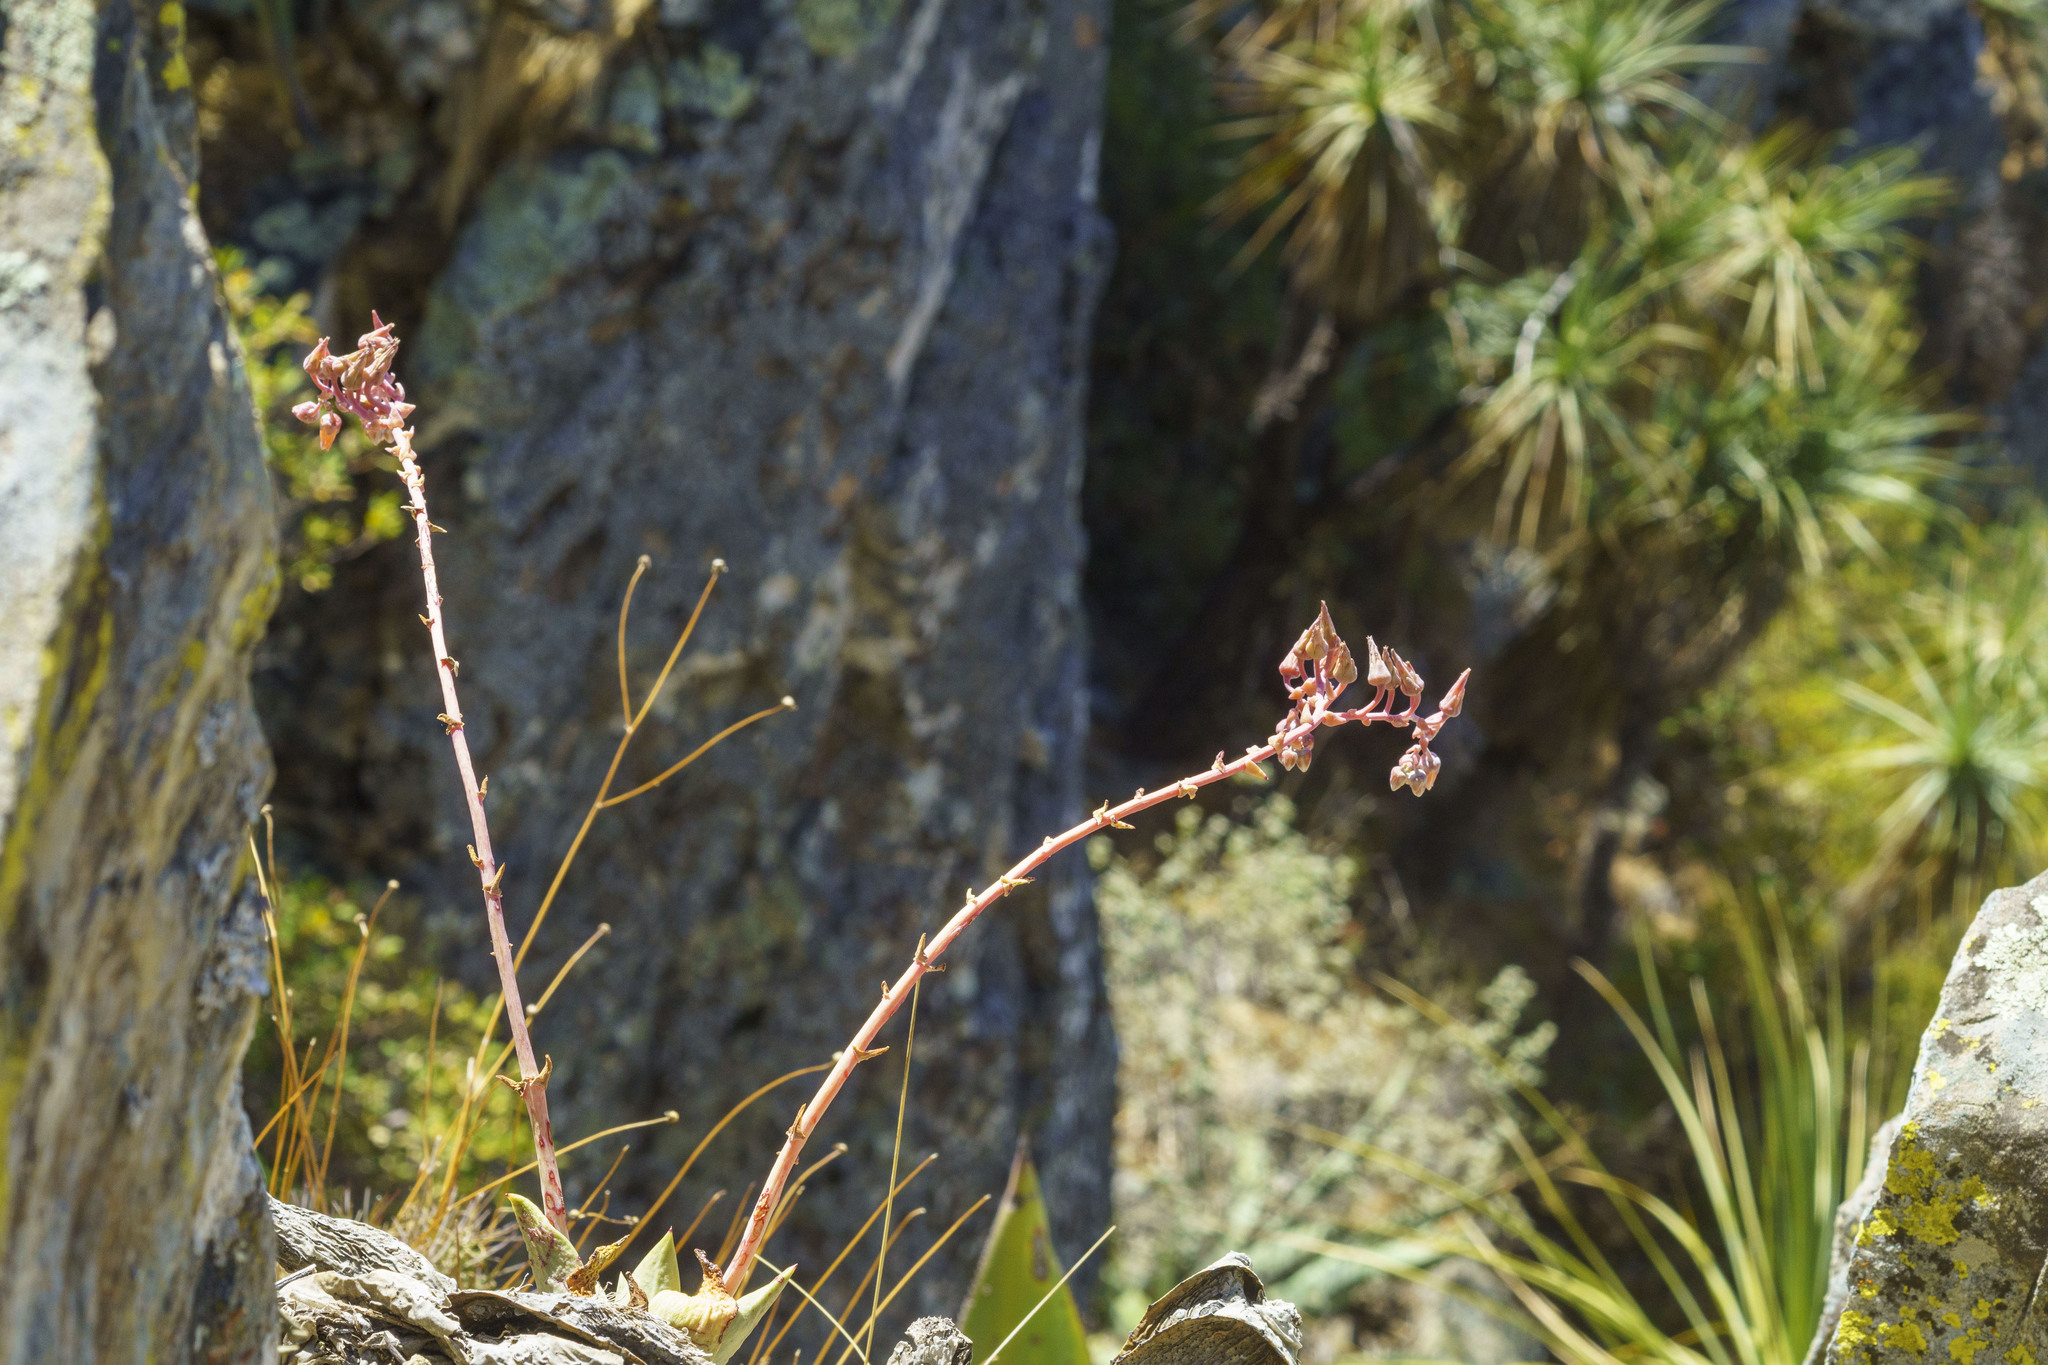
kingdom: Plantae
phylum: Tracheophyta
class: Magnoliopsida
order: Saxifragales
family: Crassulaceae
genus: Dudleya
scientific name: Dudleya rigida
